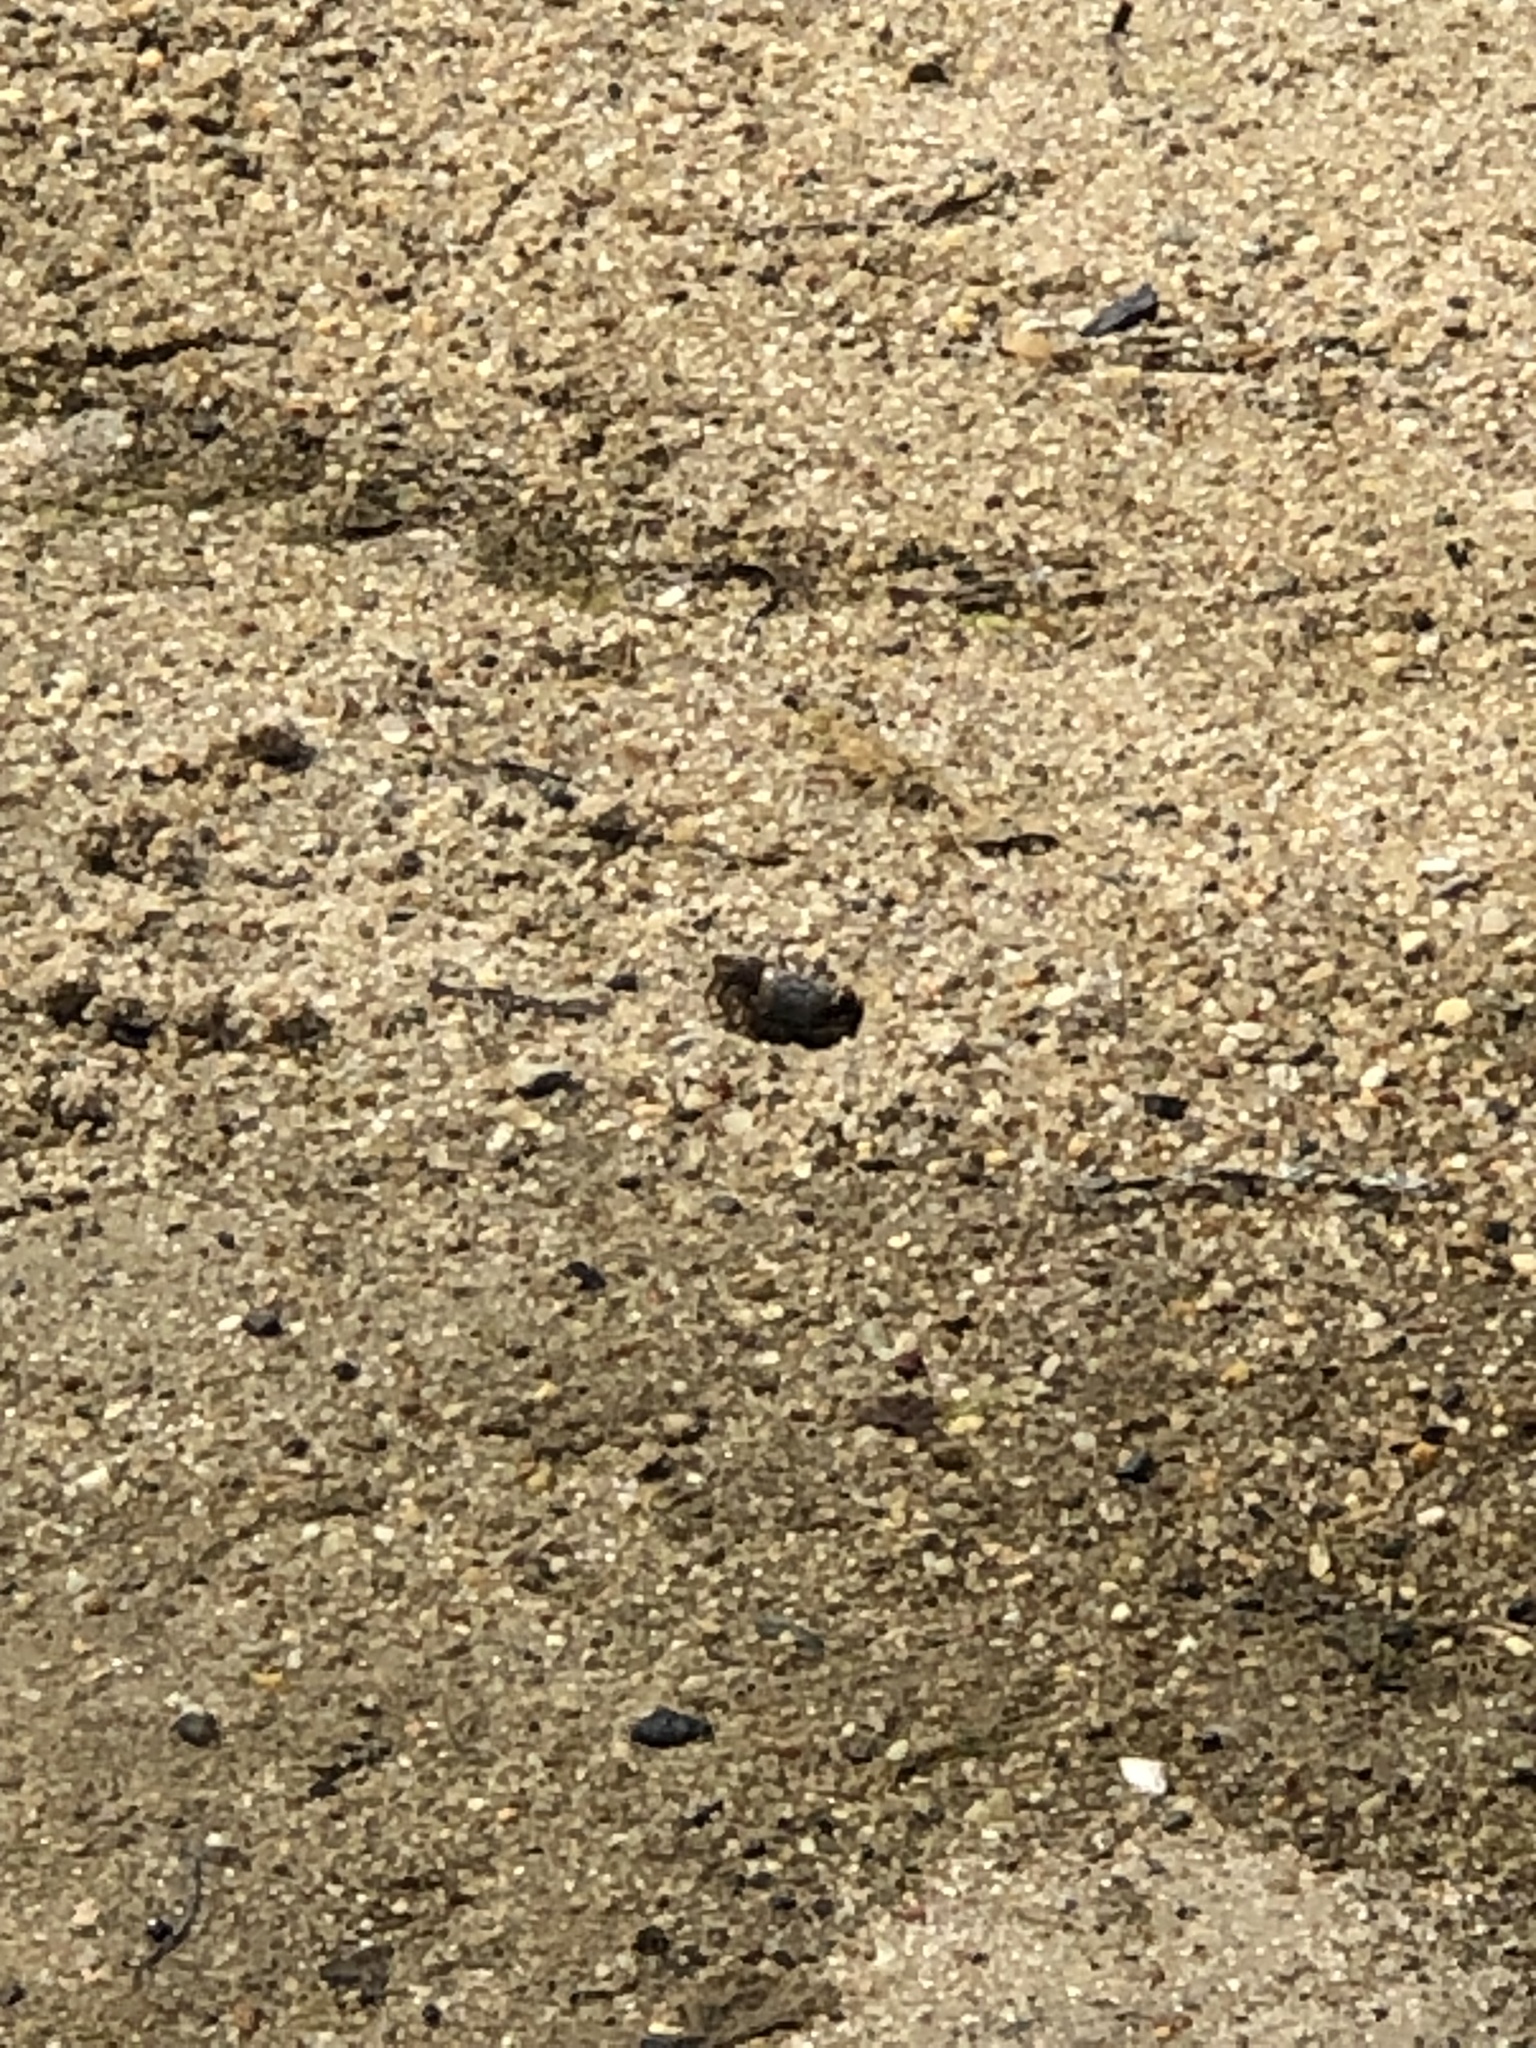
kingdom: Animalia
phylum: Arthropoda
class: Malacostraca
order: Decapoda
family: Ocypodidae
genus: Leptuca
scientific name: Leptuca pugilator
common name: Atlantic sand fiddler crab
